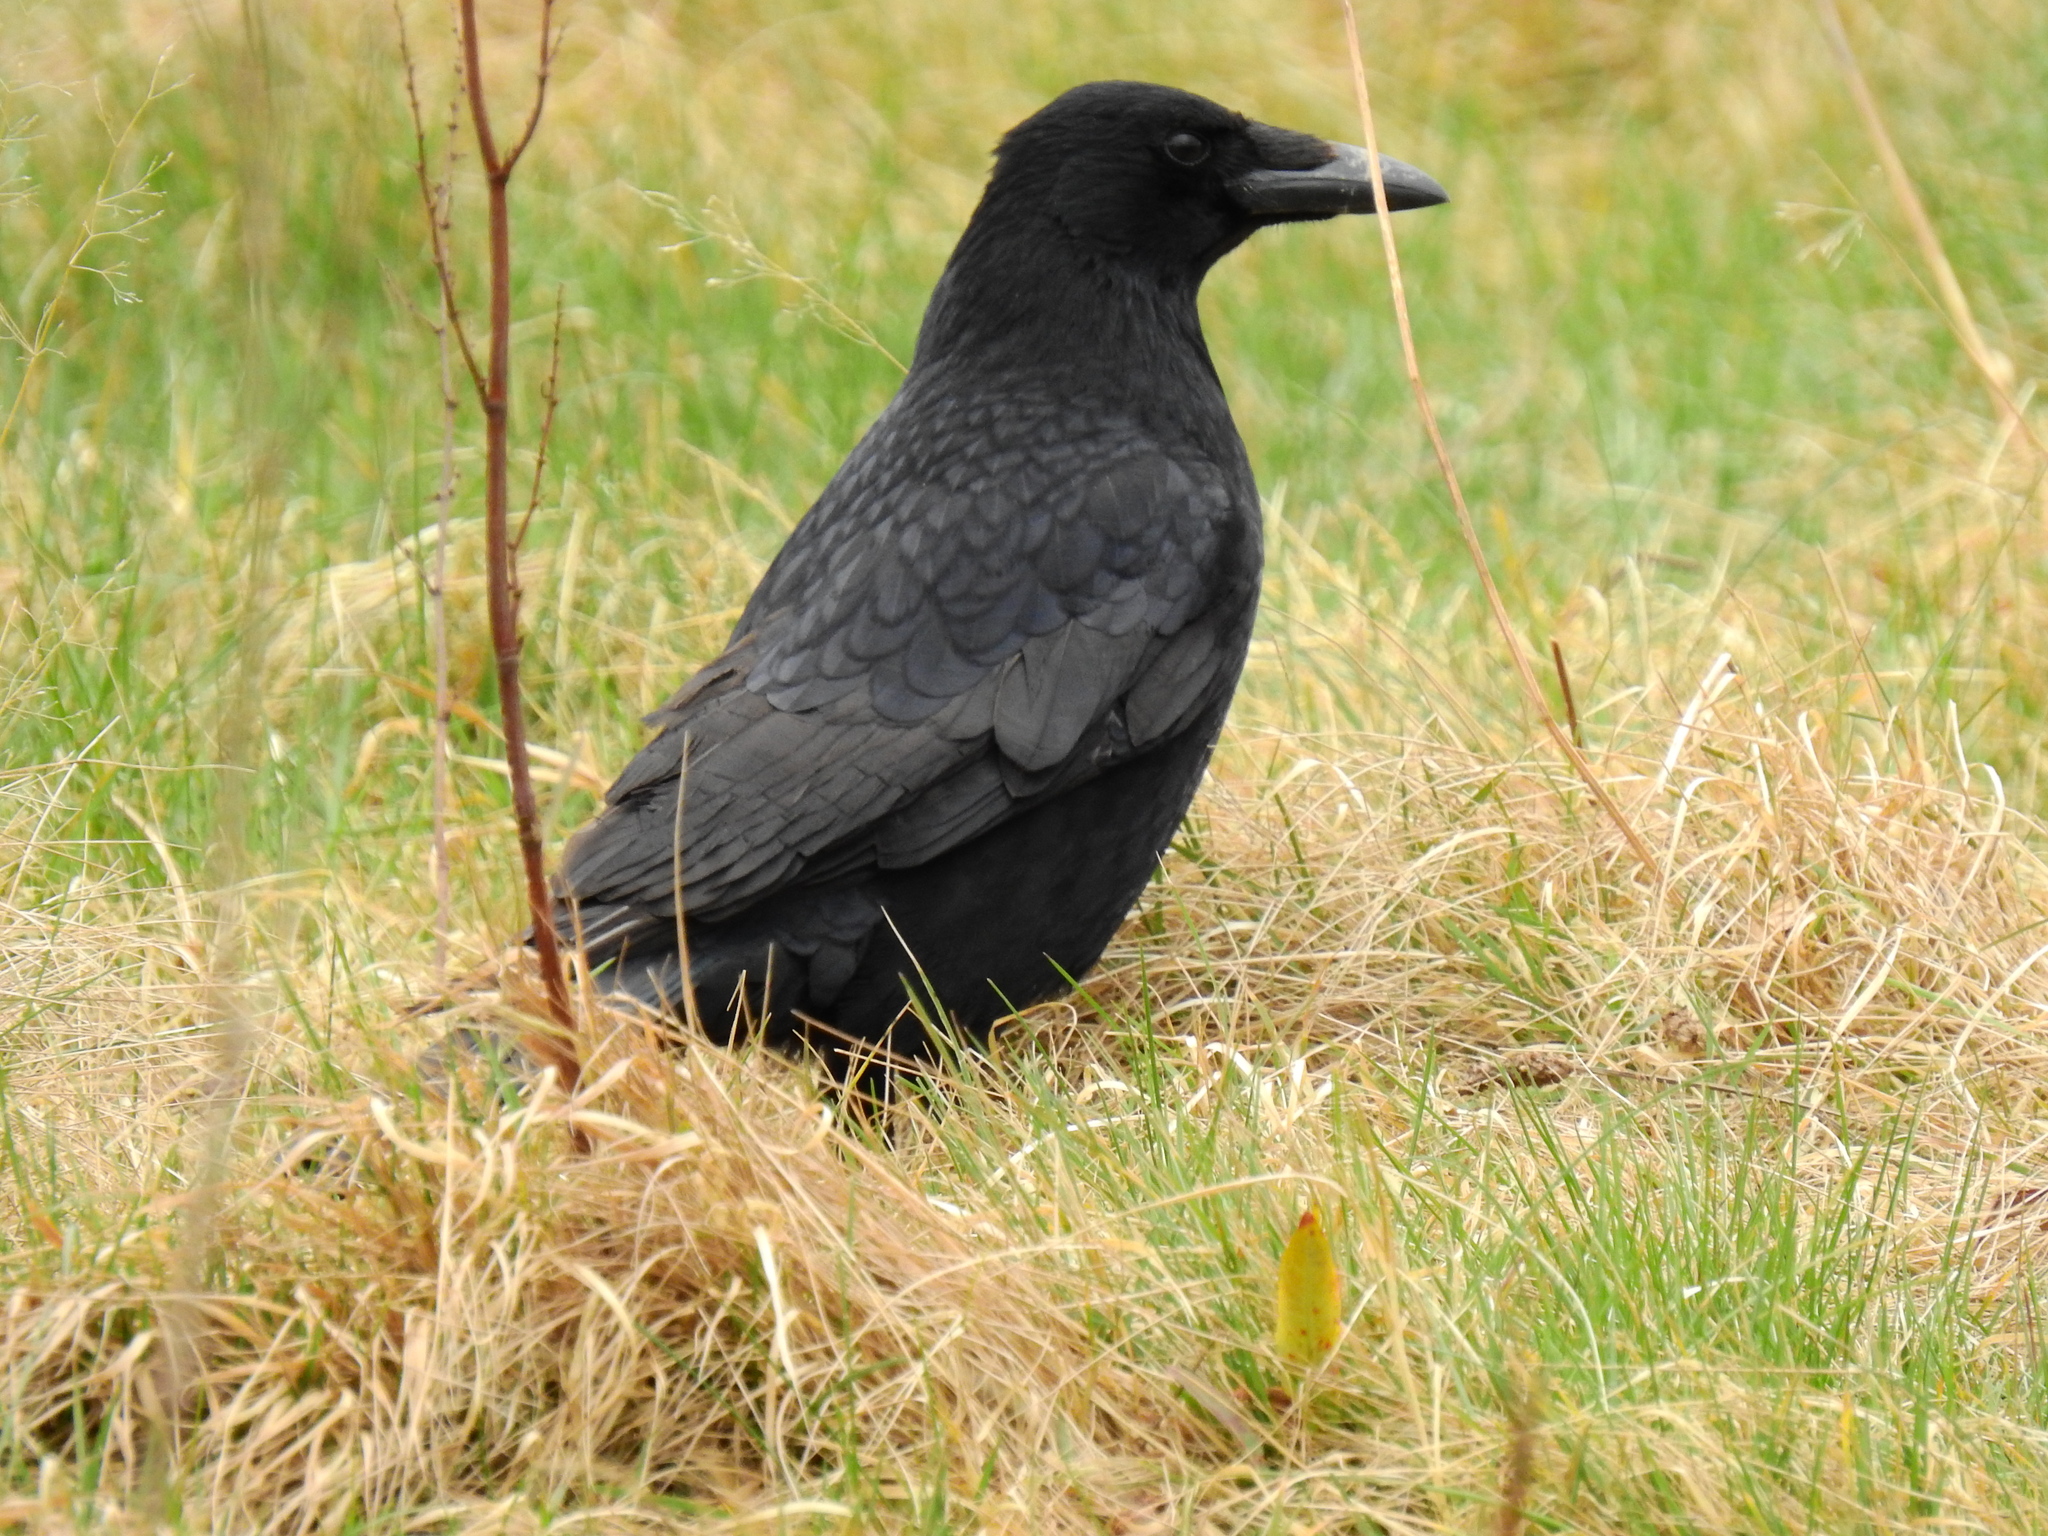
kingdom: Animalia
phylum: Chordata
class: Aves
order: Passeriformes
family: Corvidae
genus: Corvus
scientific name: Corvus corone
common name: Carrion crow
